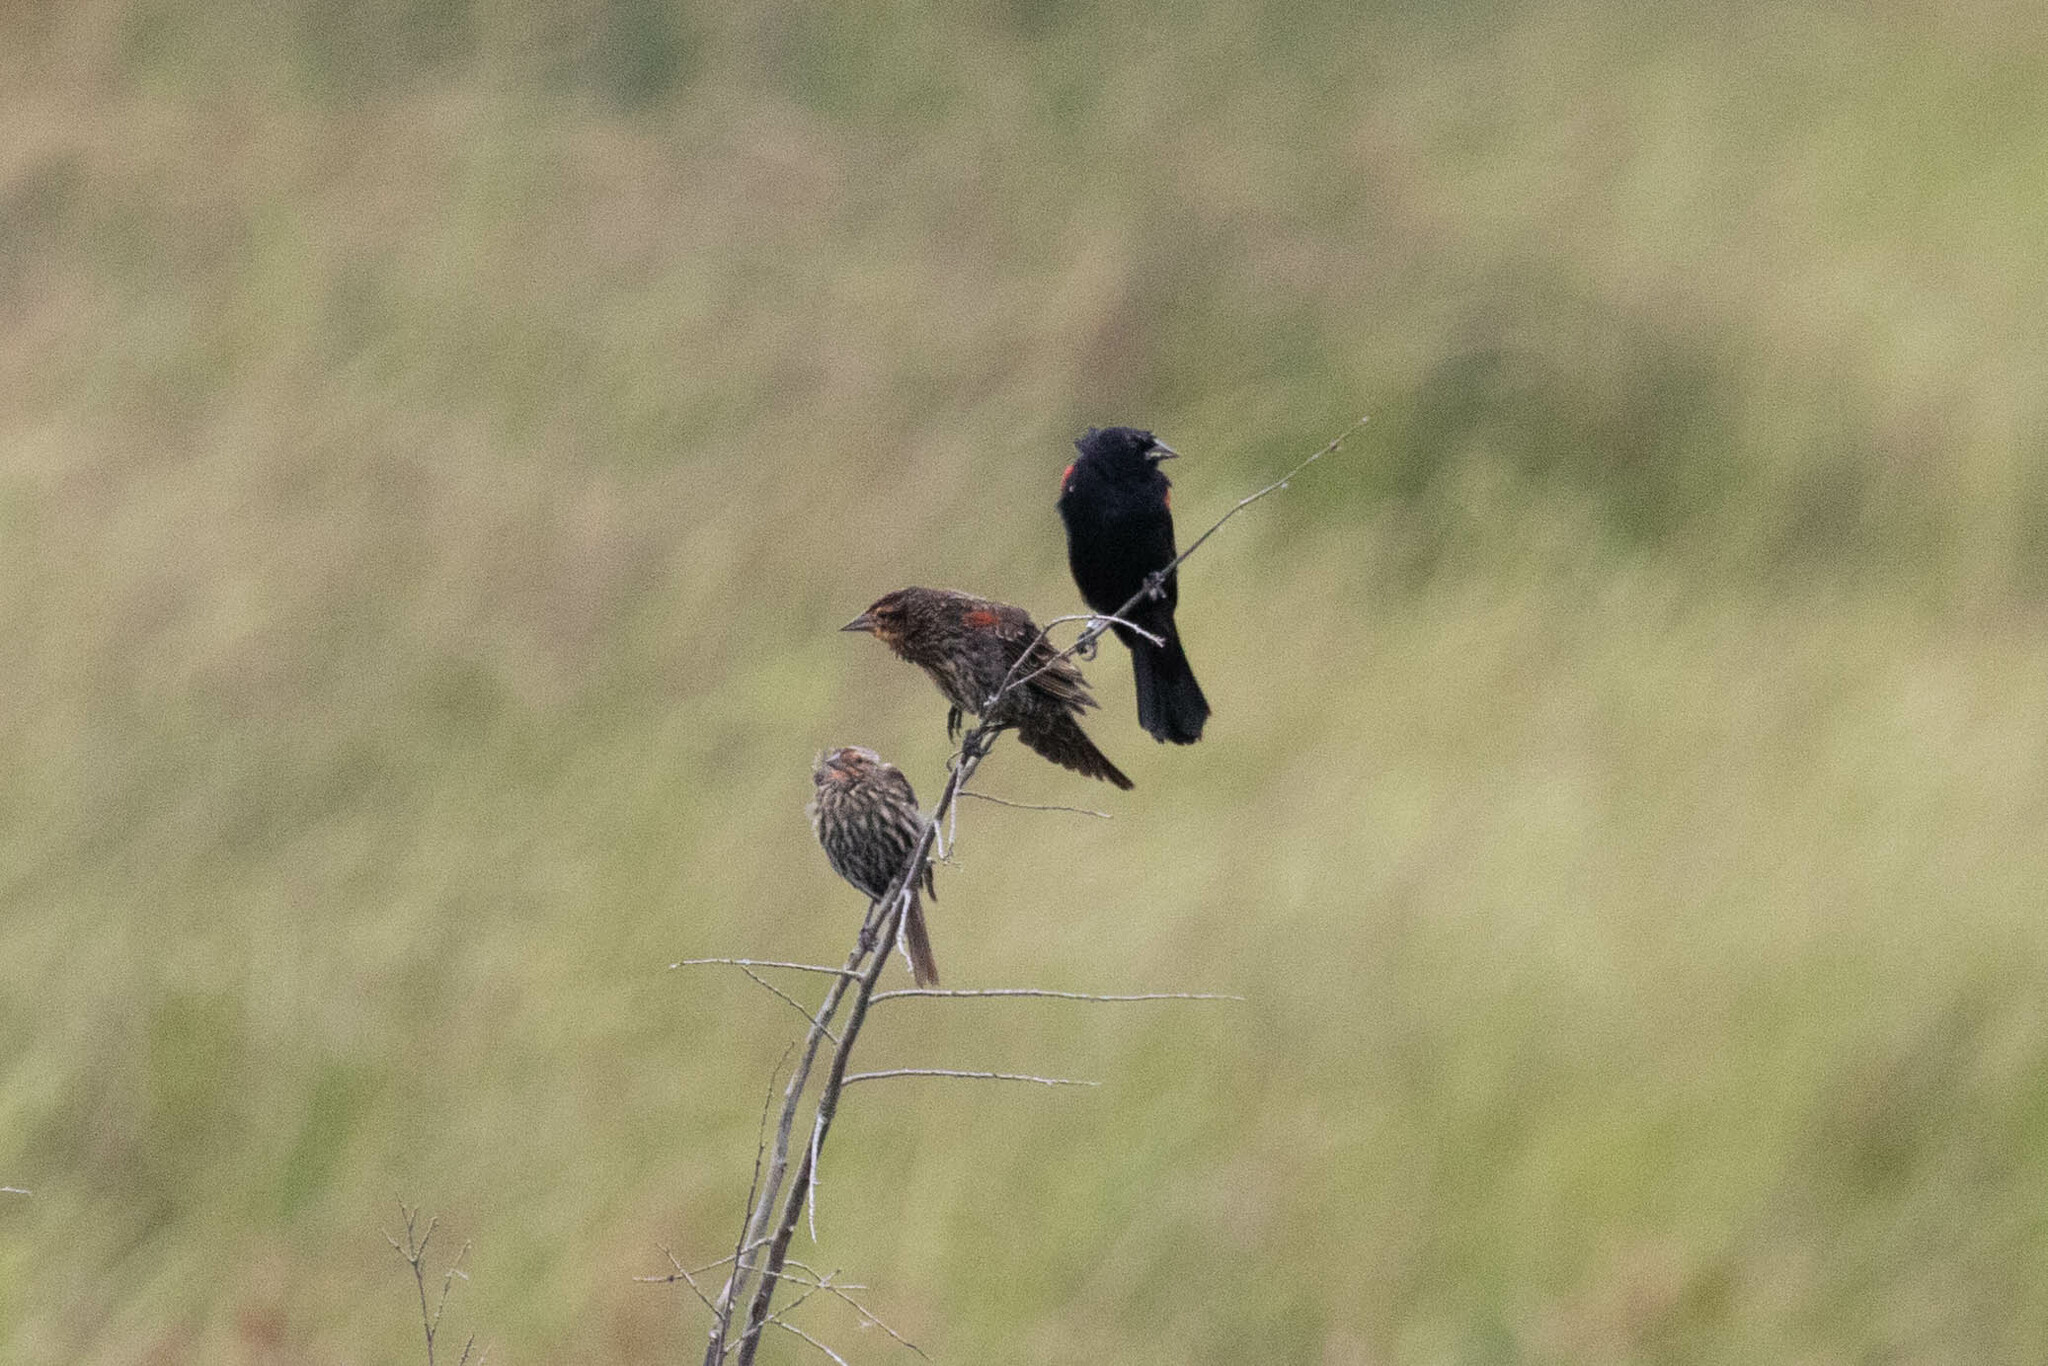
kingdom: Animalia
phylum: Chordata
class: Aves
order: Passeriformes
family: Icteridae
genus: Agelaius
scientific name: Agelaius phoeniceus
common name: Red-winged blackbird
